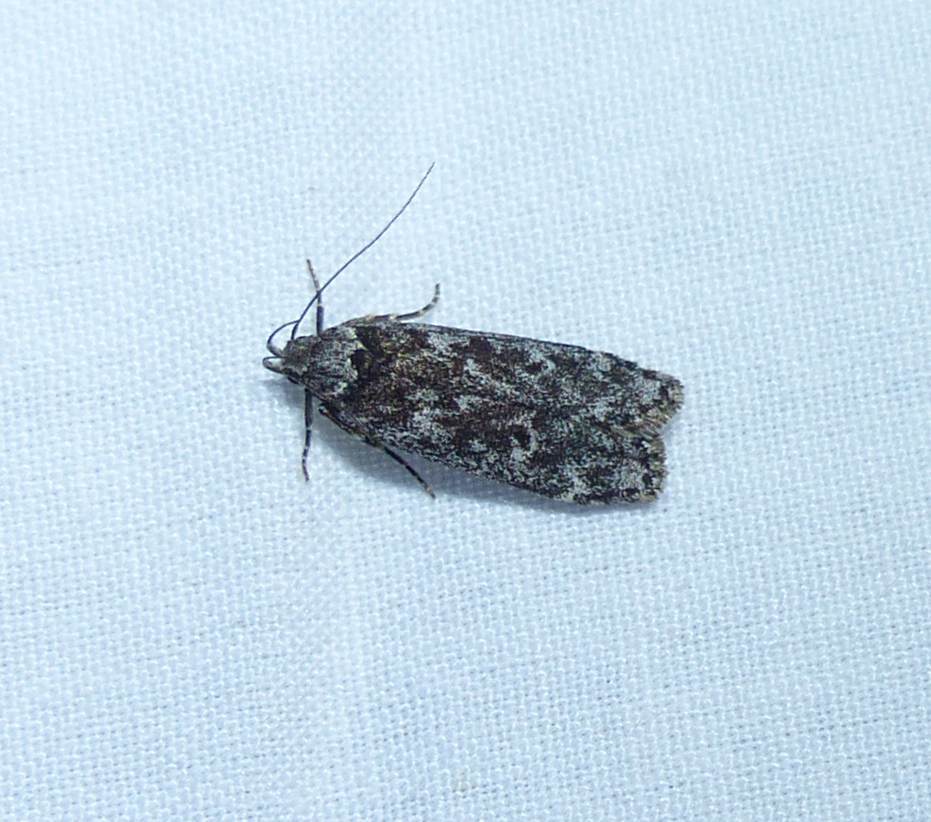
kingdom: Animalia
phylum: Arthropoda
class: Insecta
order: Lepidoptera
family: Gelechiidae
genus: Anacampsis
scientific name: Anacampsis niveopulvella
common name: Pale-headed aspen leafroller moth
